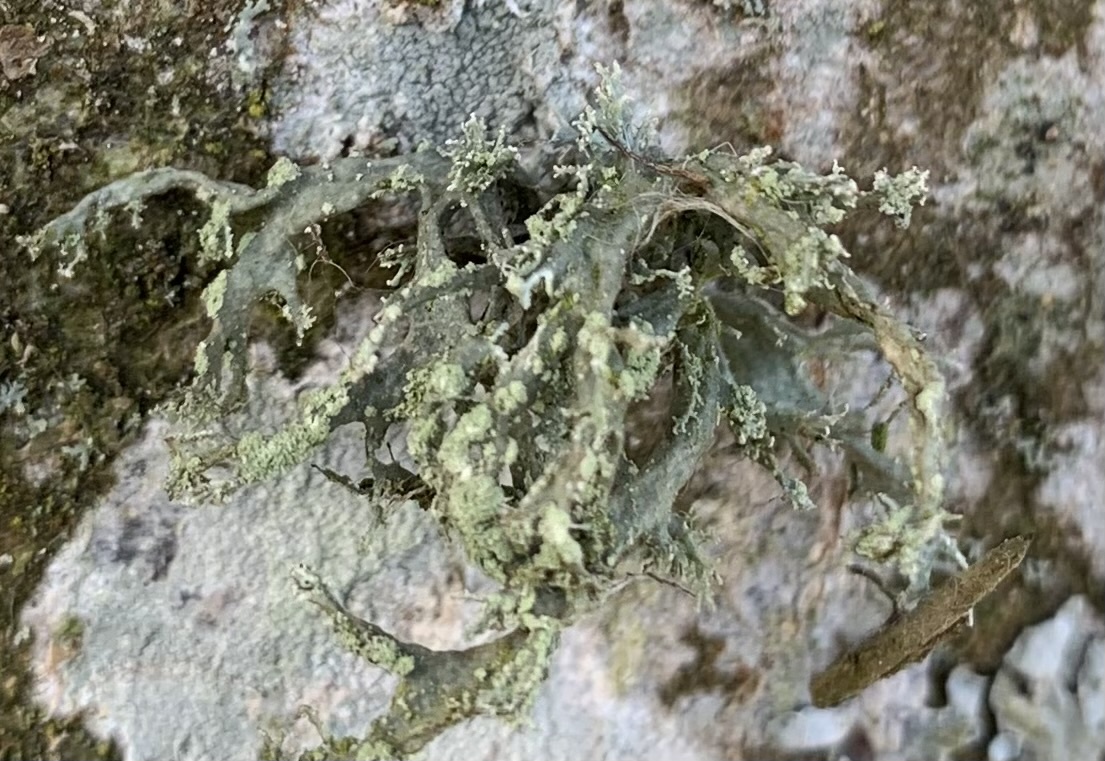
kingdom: Fungi
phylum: Ascomycota
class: Lecanoromycetes
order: Lecanorales
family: Ramalinaceae
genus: Ramalina
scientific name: Ramalina farinacea
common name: Farinose cartilage lichen
